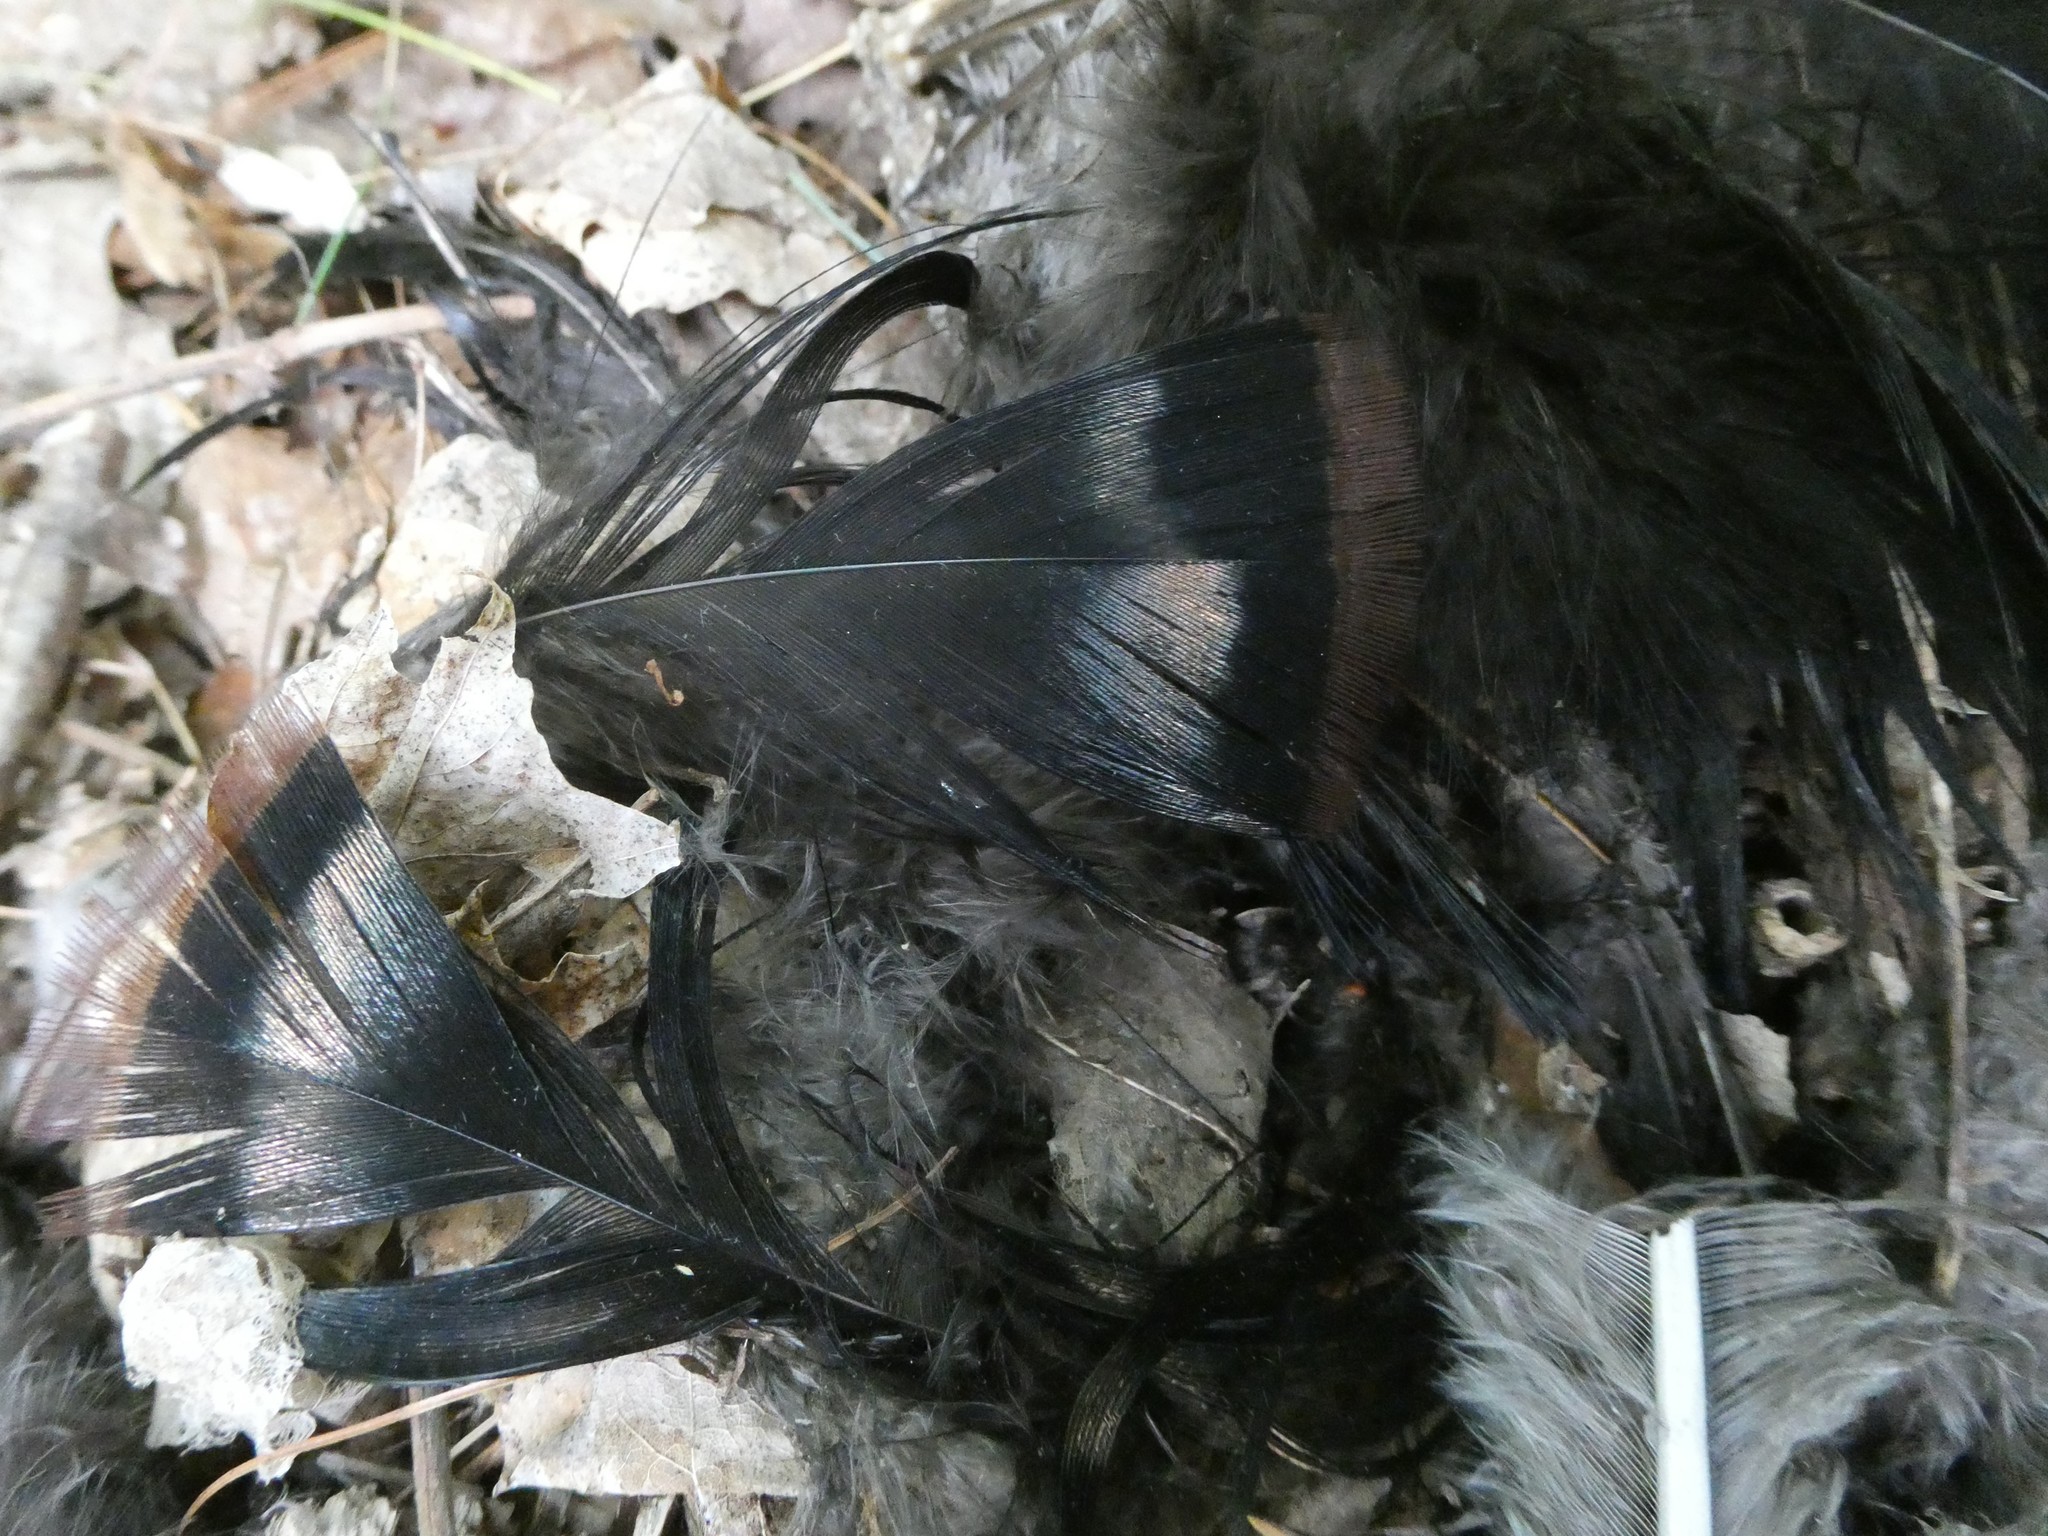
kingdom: Animalia
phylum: Chordata
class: Aves
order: Galliformes
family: Phasianidae
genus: Meleagris
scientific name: Meleagris gallopavo
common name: Wild turkey
